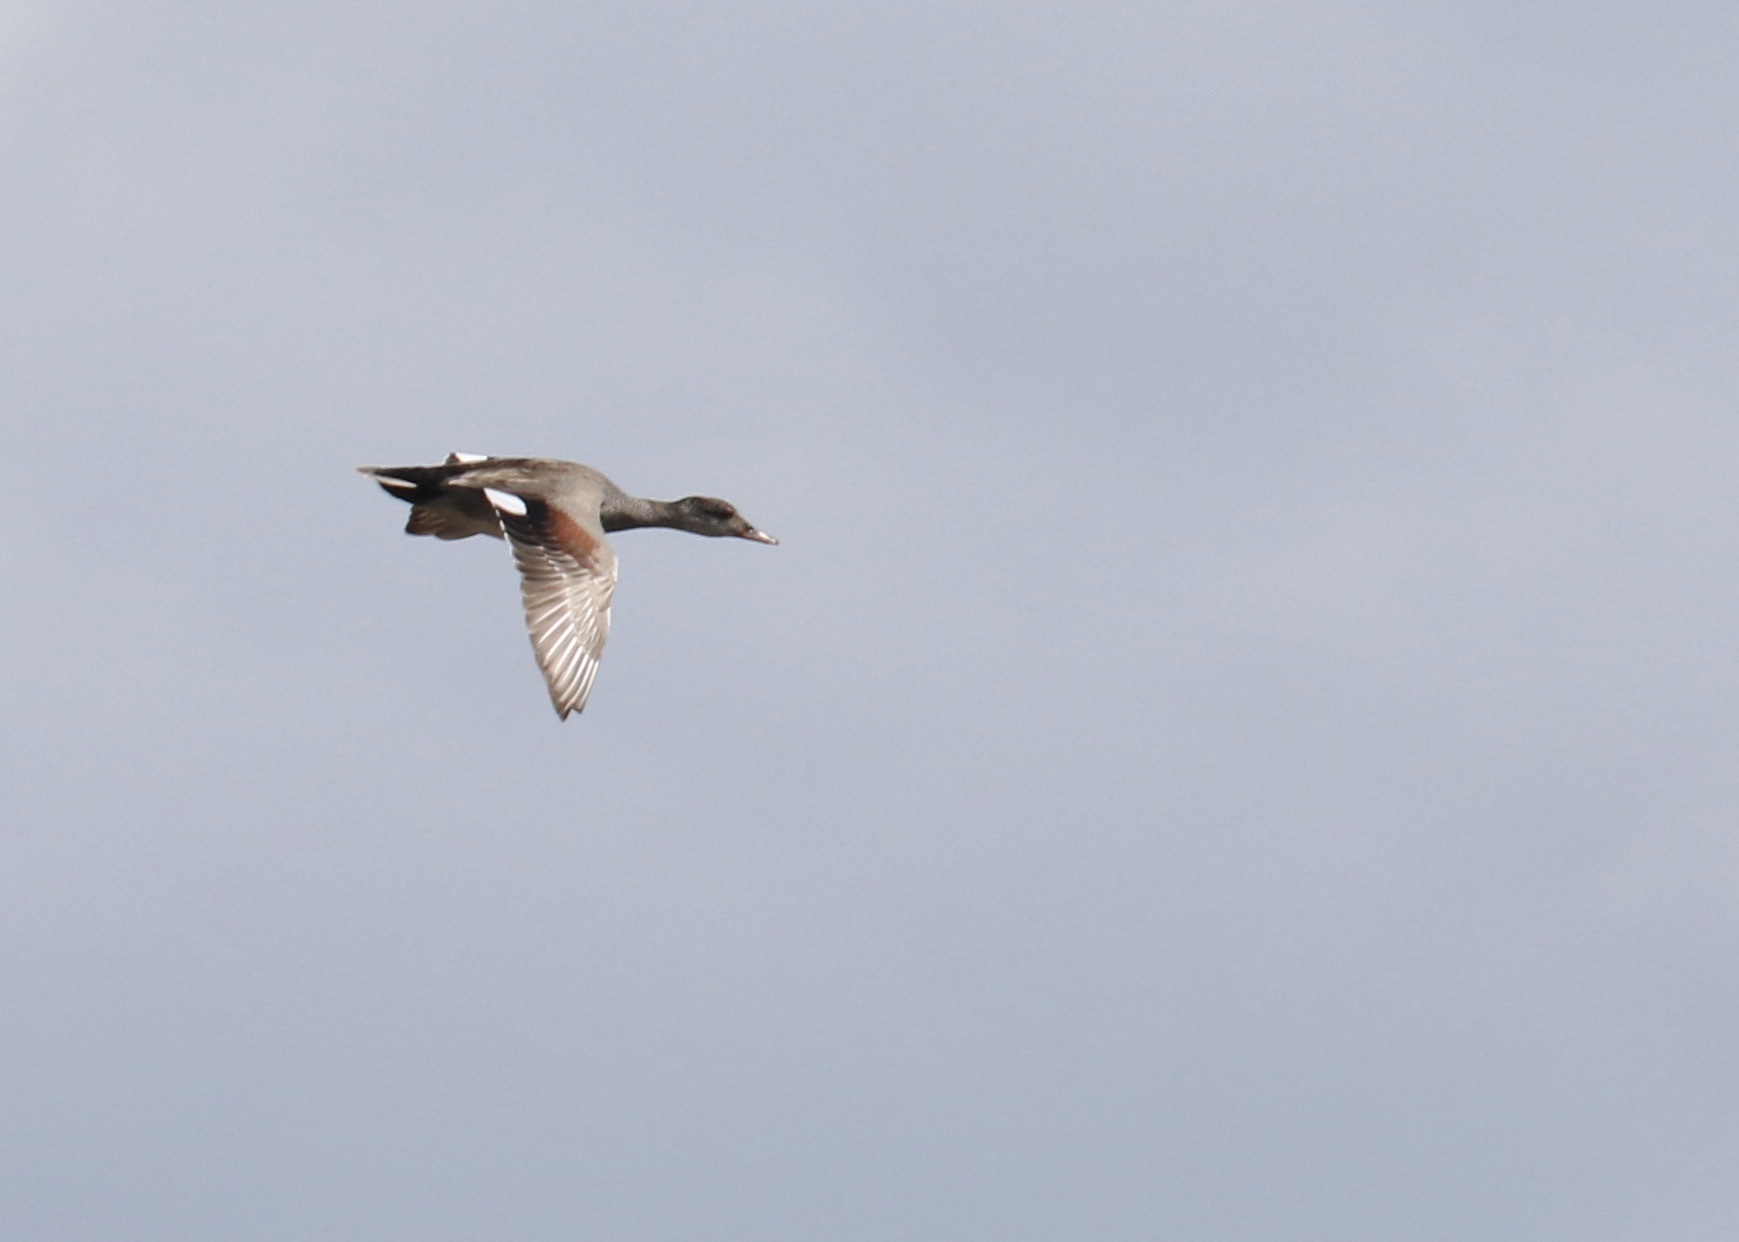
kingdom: Animalia
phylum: Chordata
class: Aves
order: Anseriformes
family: Anatidae
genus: Mareca
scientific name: Mareca strepera
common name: Gadwall
